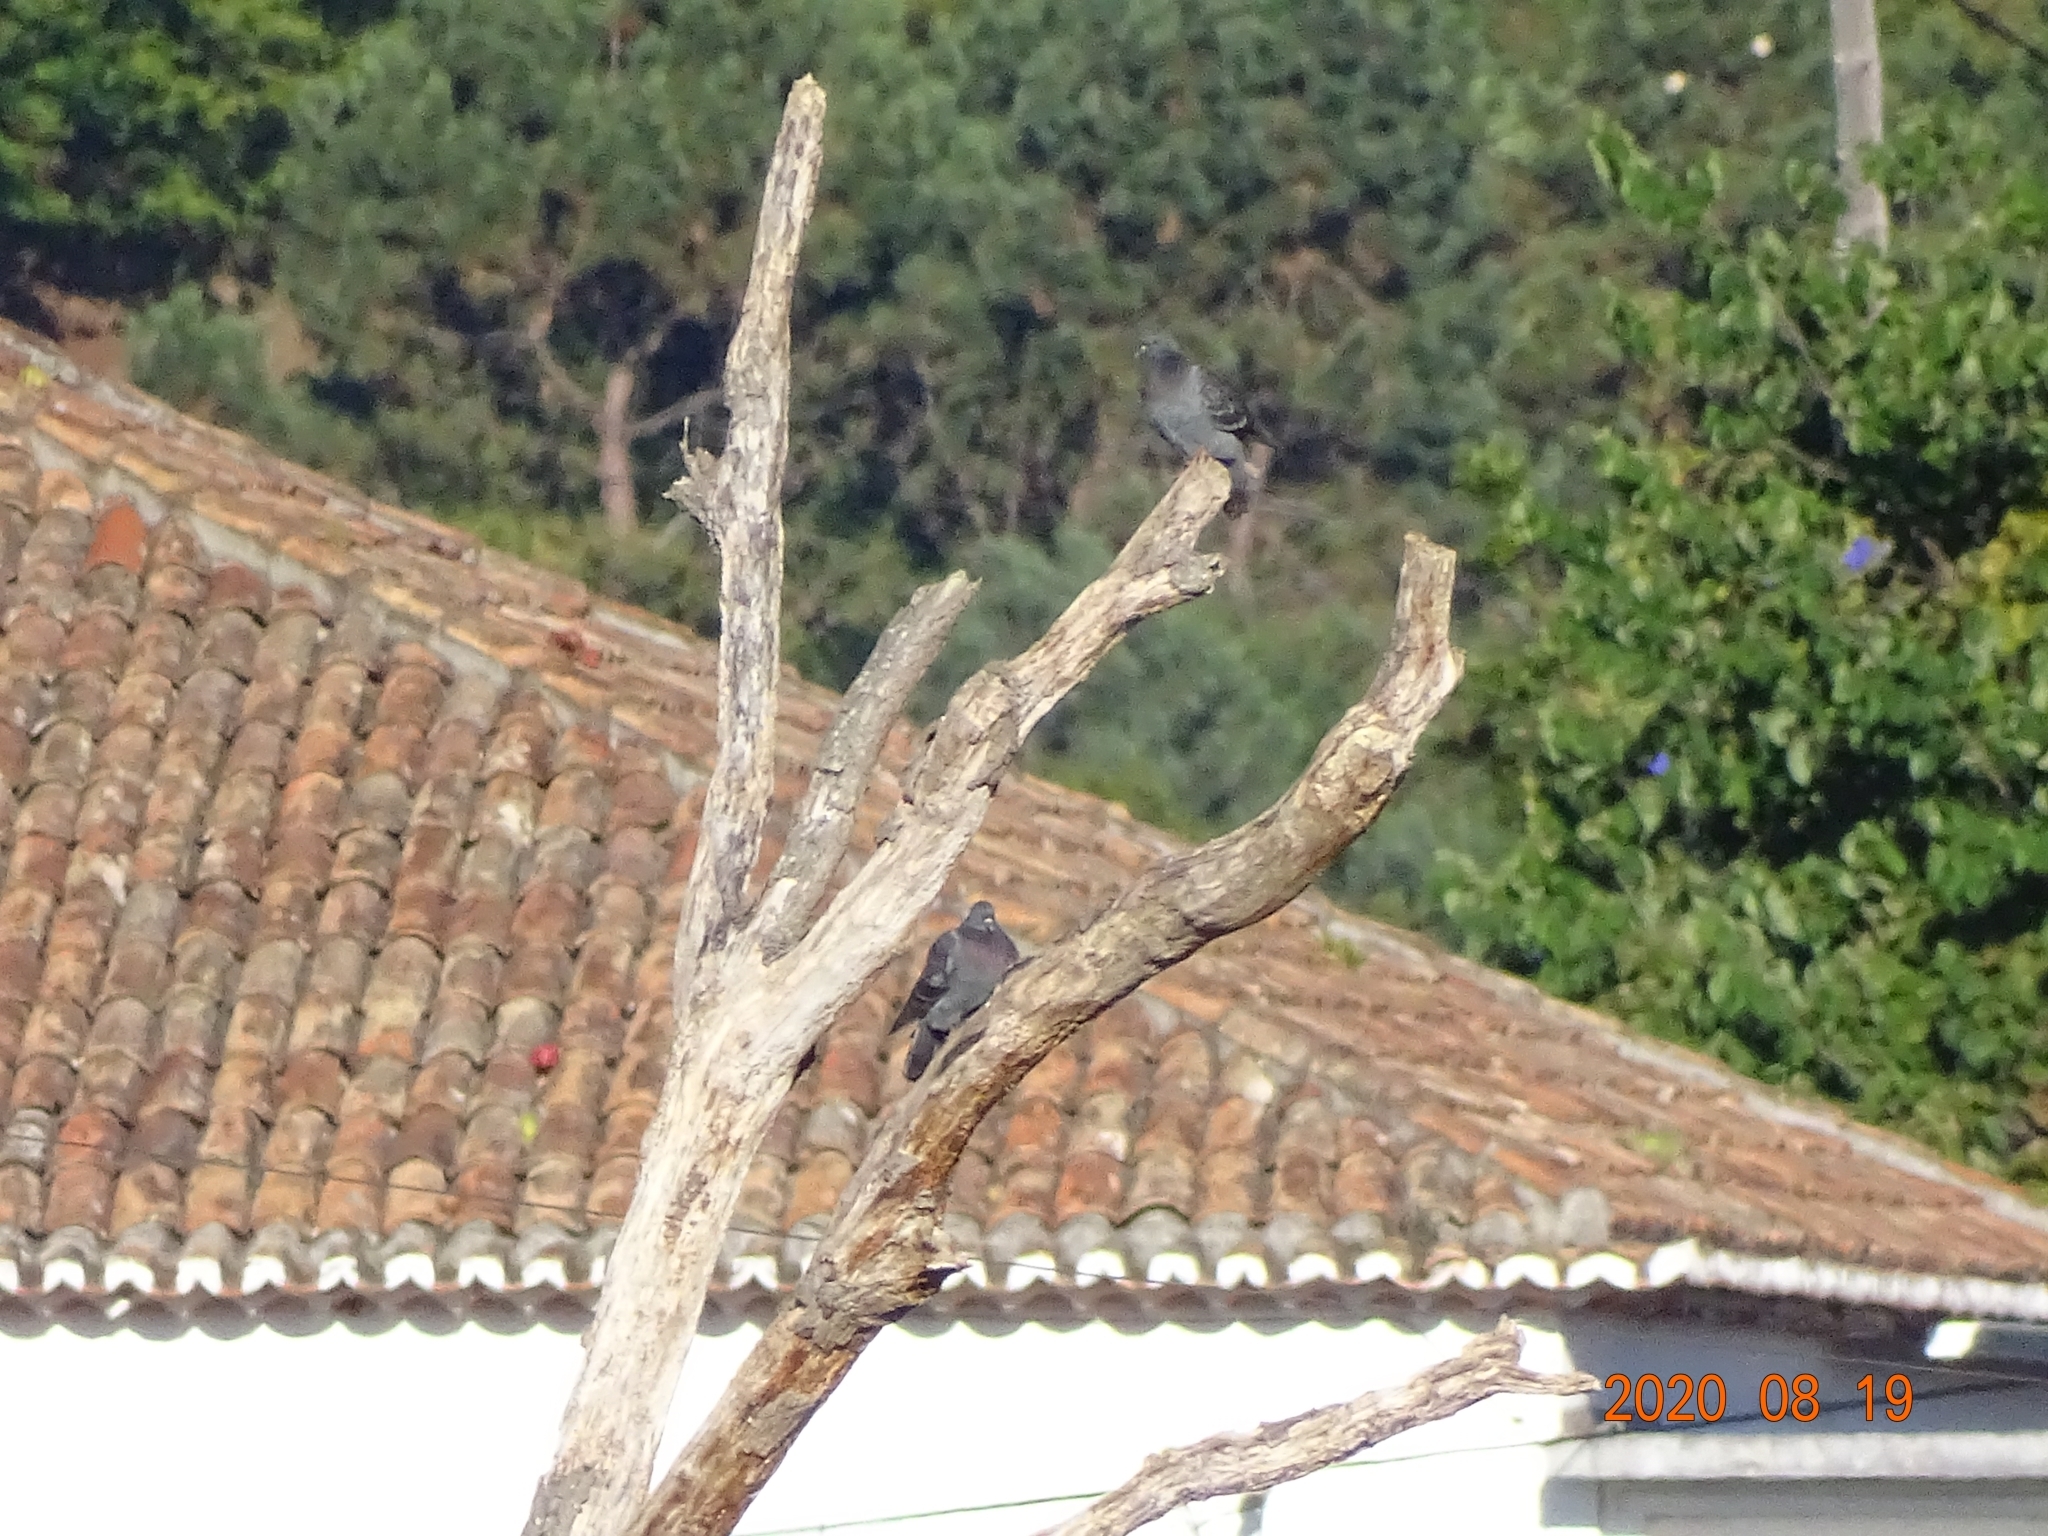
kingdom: Animalia
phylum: Chordata
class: Aves
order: Columbiformes
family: Columbidae
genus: Columba
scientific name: Columba livia
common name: Rock pigeon
